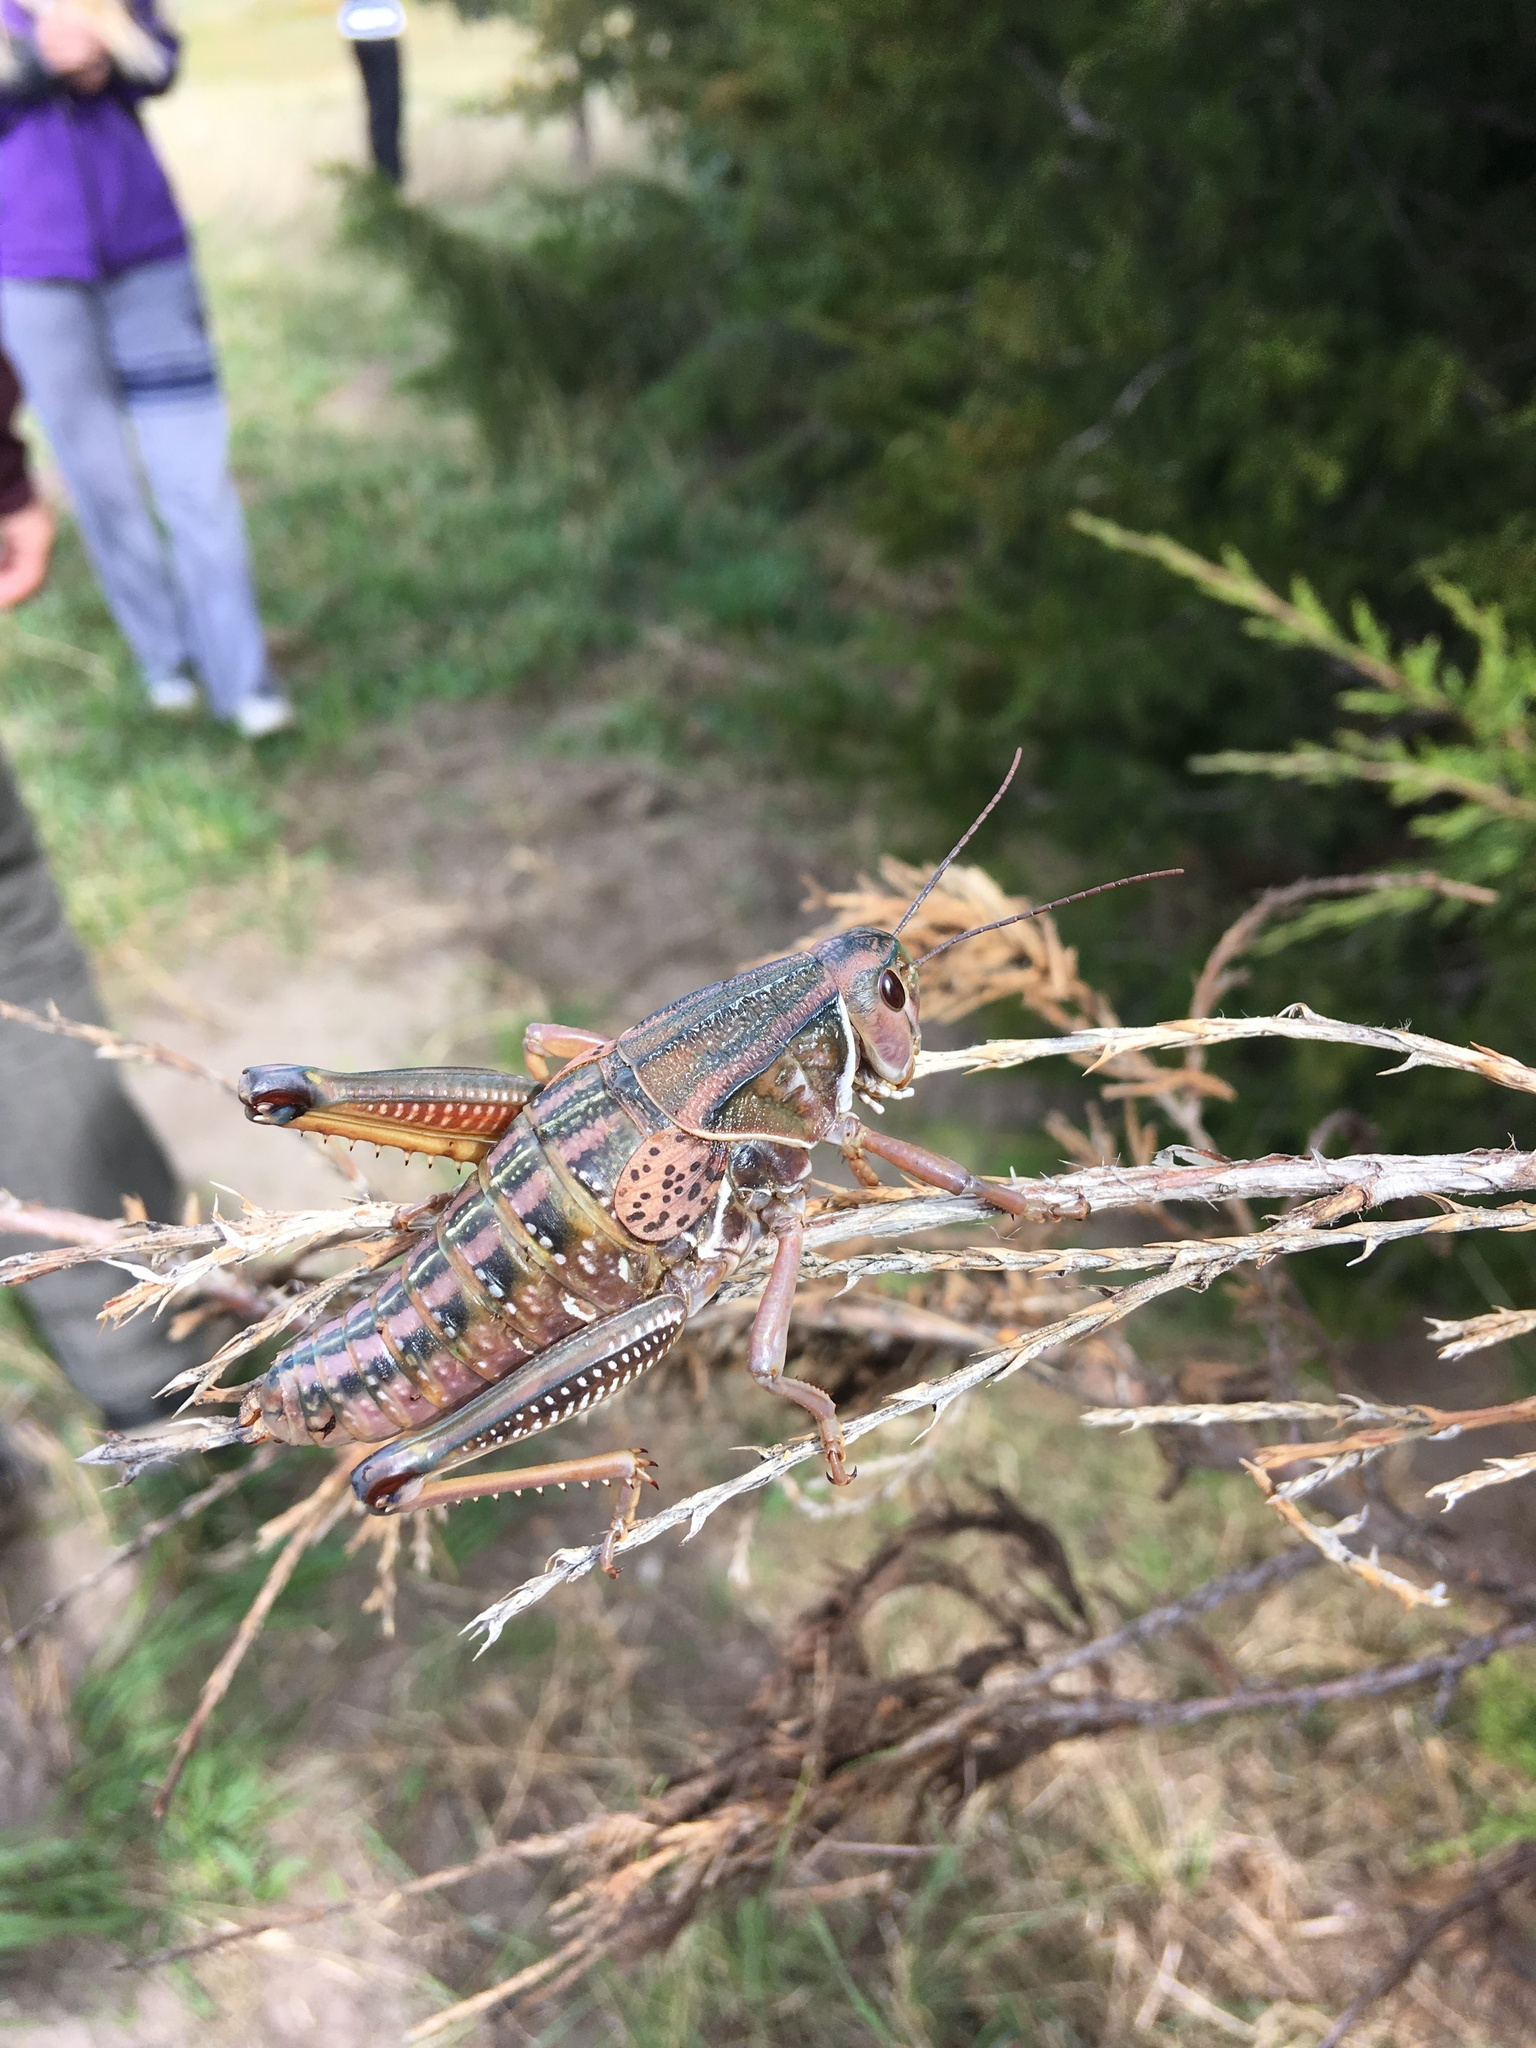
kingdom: Animalia
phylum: Arthropoda
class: Insecta
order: Orthoptera
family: Romaleidae
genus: Brachystola
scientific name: Brachystola magna
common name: Plains lubber grasshopper
